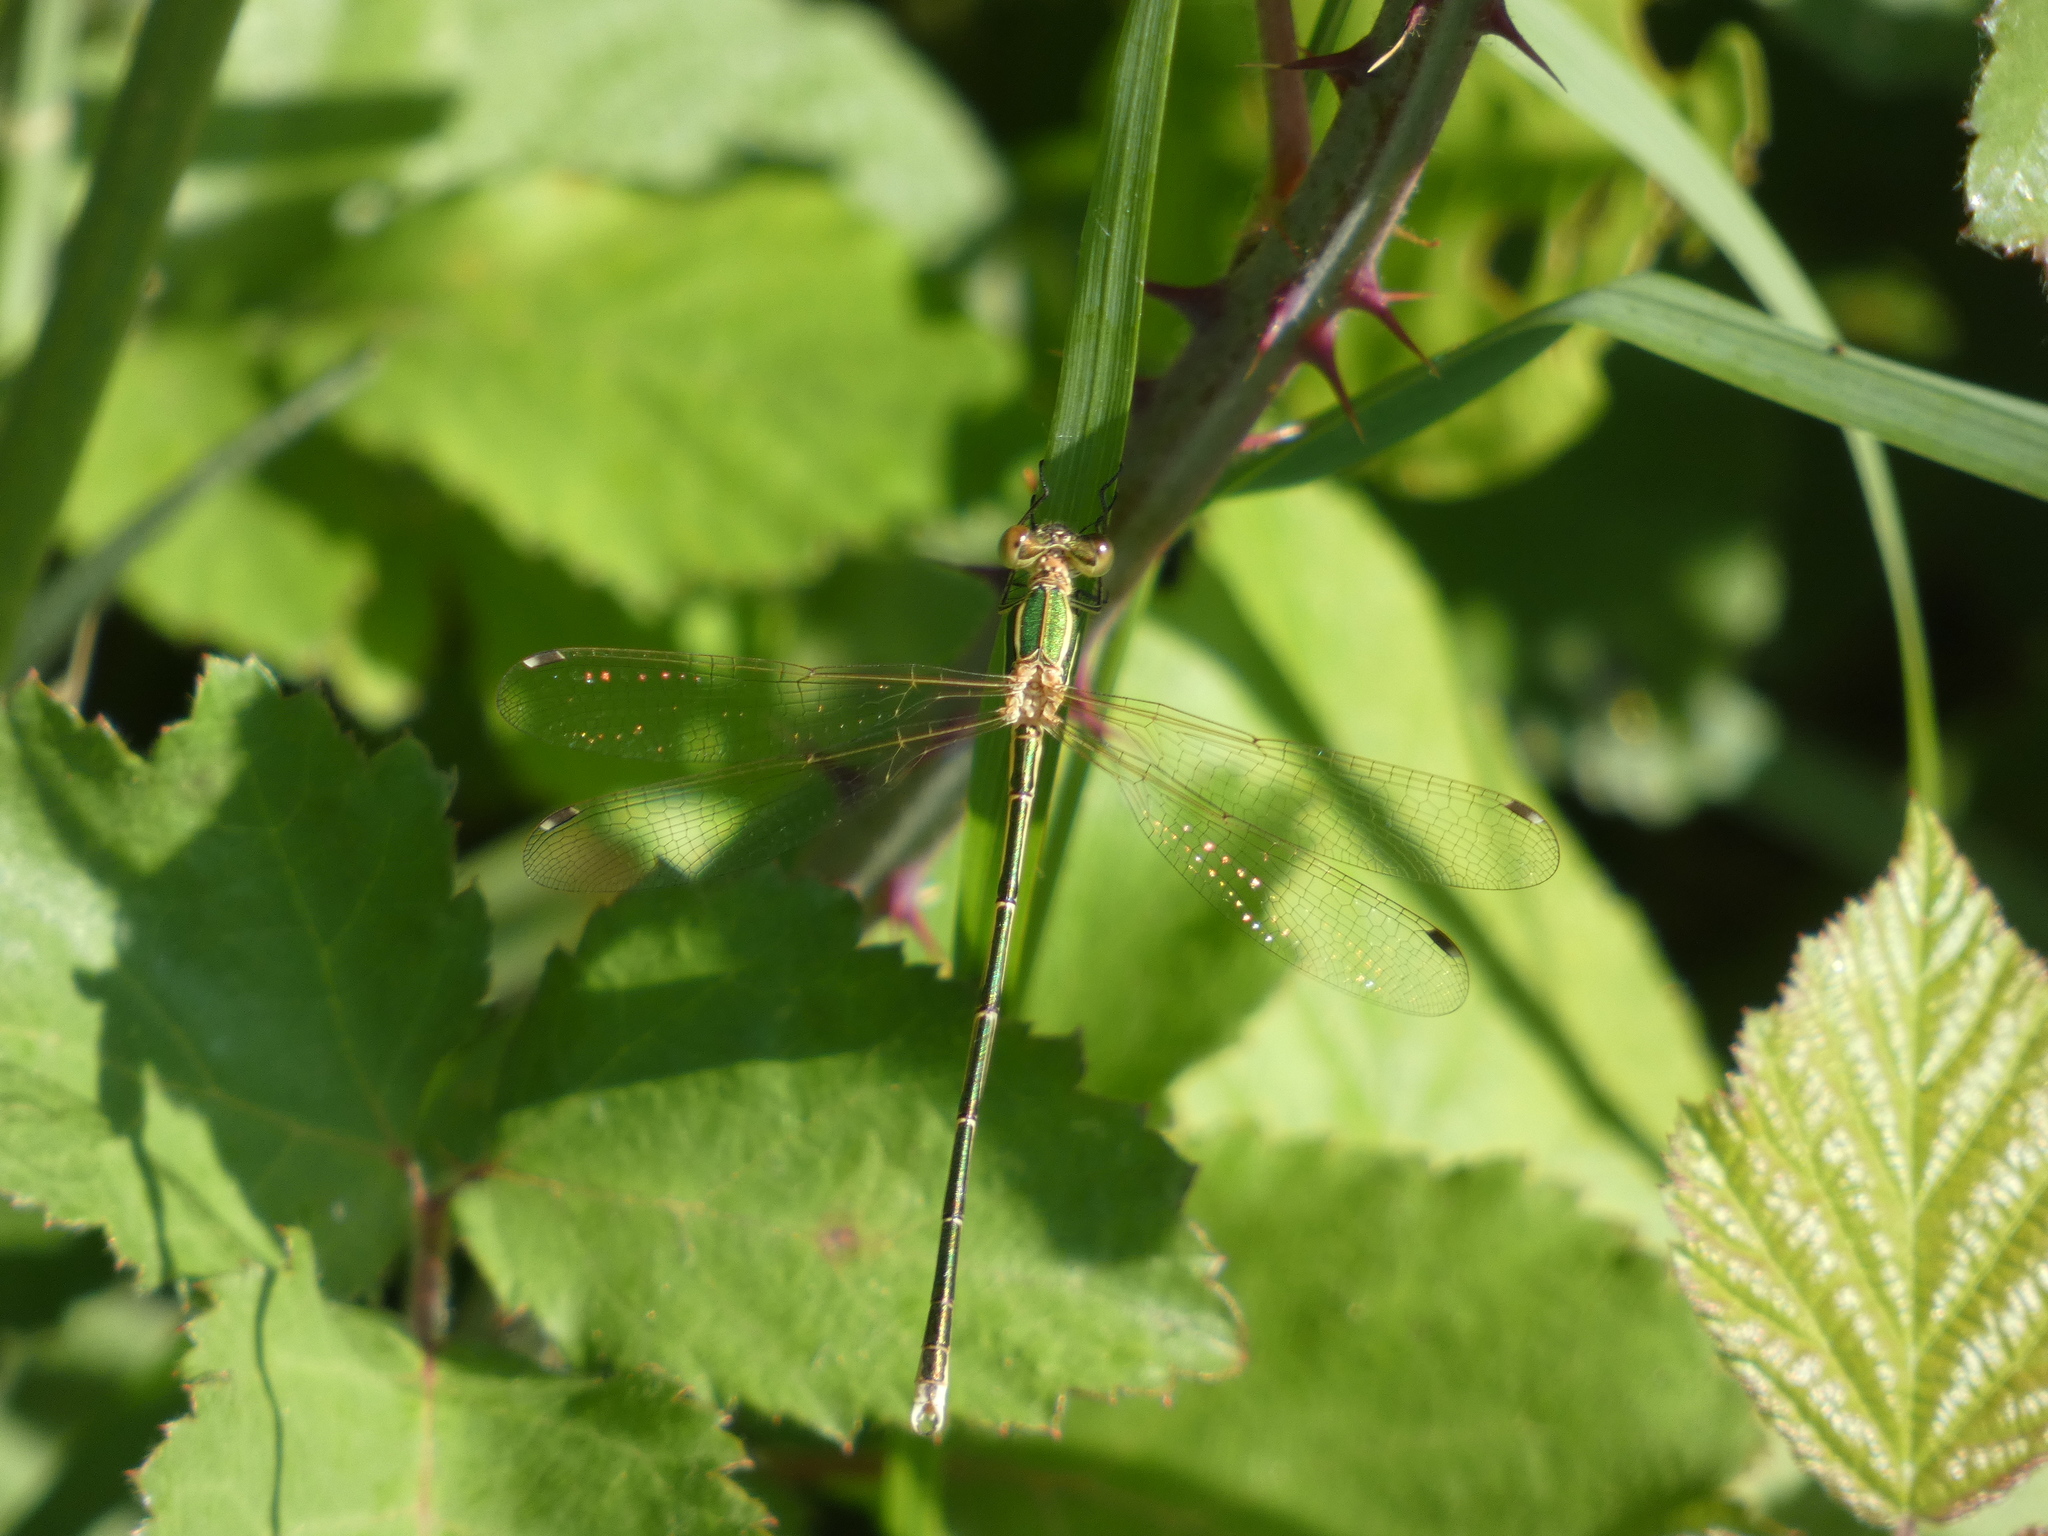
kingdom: Animalia
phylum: Arthropoda
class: Insecta
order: Odonata
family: Lestidae
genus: Lestes
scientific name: Lestes barbarus
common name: Migrant spreadwing
